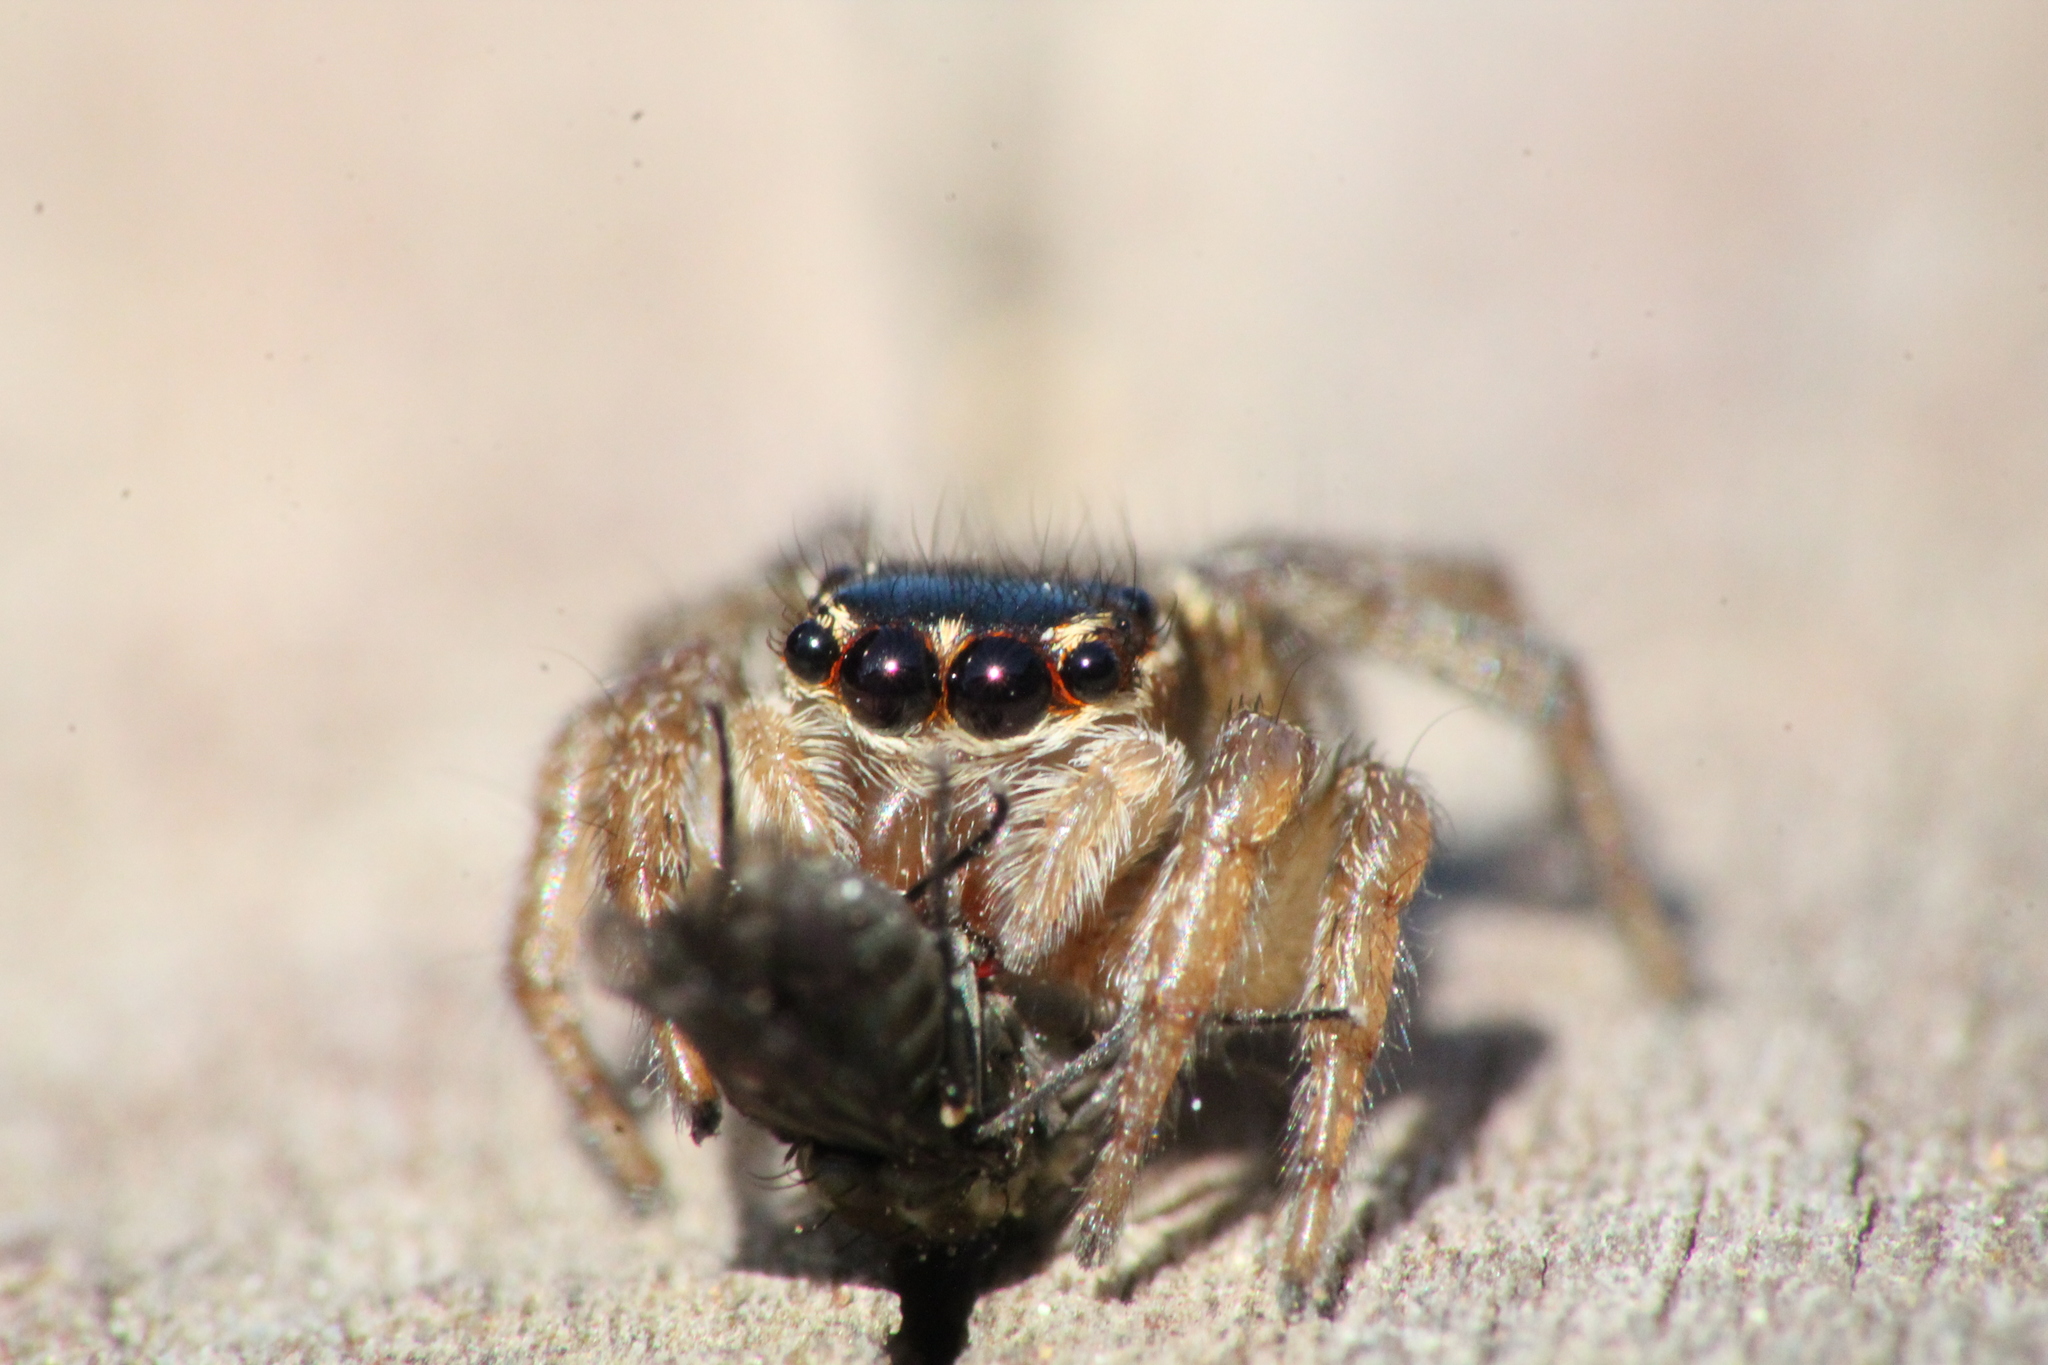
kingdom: Animalia
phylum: Arthropoda
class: Arachnida
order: Araneae
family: Salticidae
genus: Maratus
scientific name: Maratus griseus
